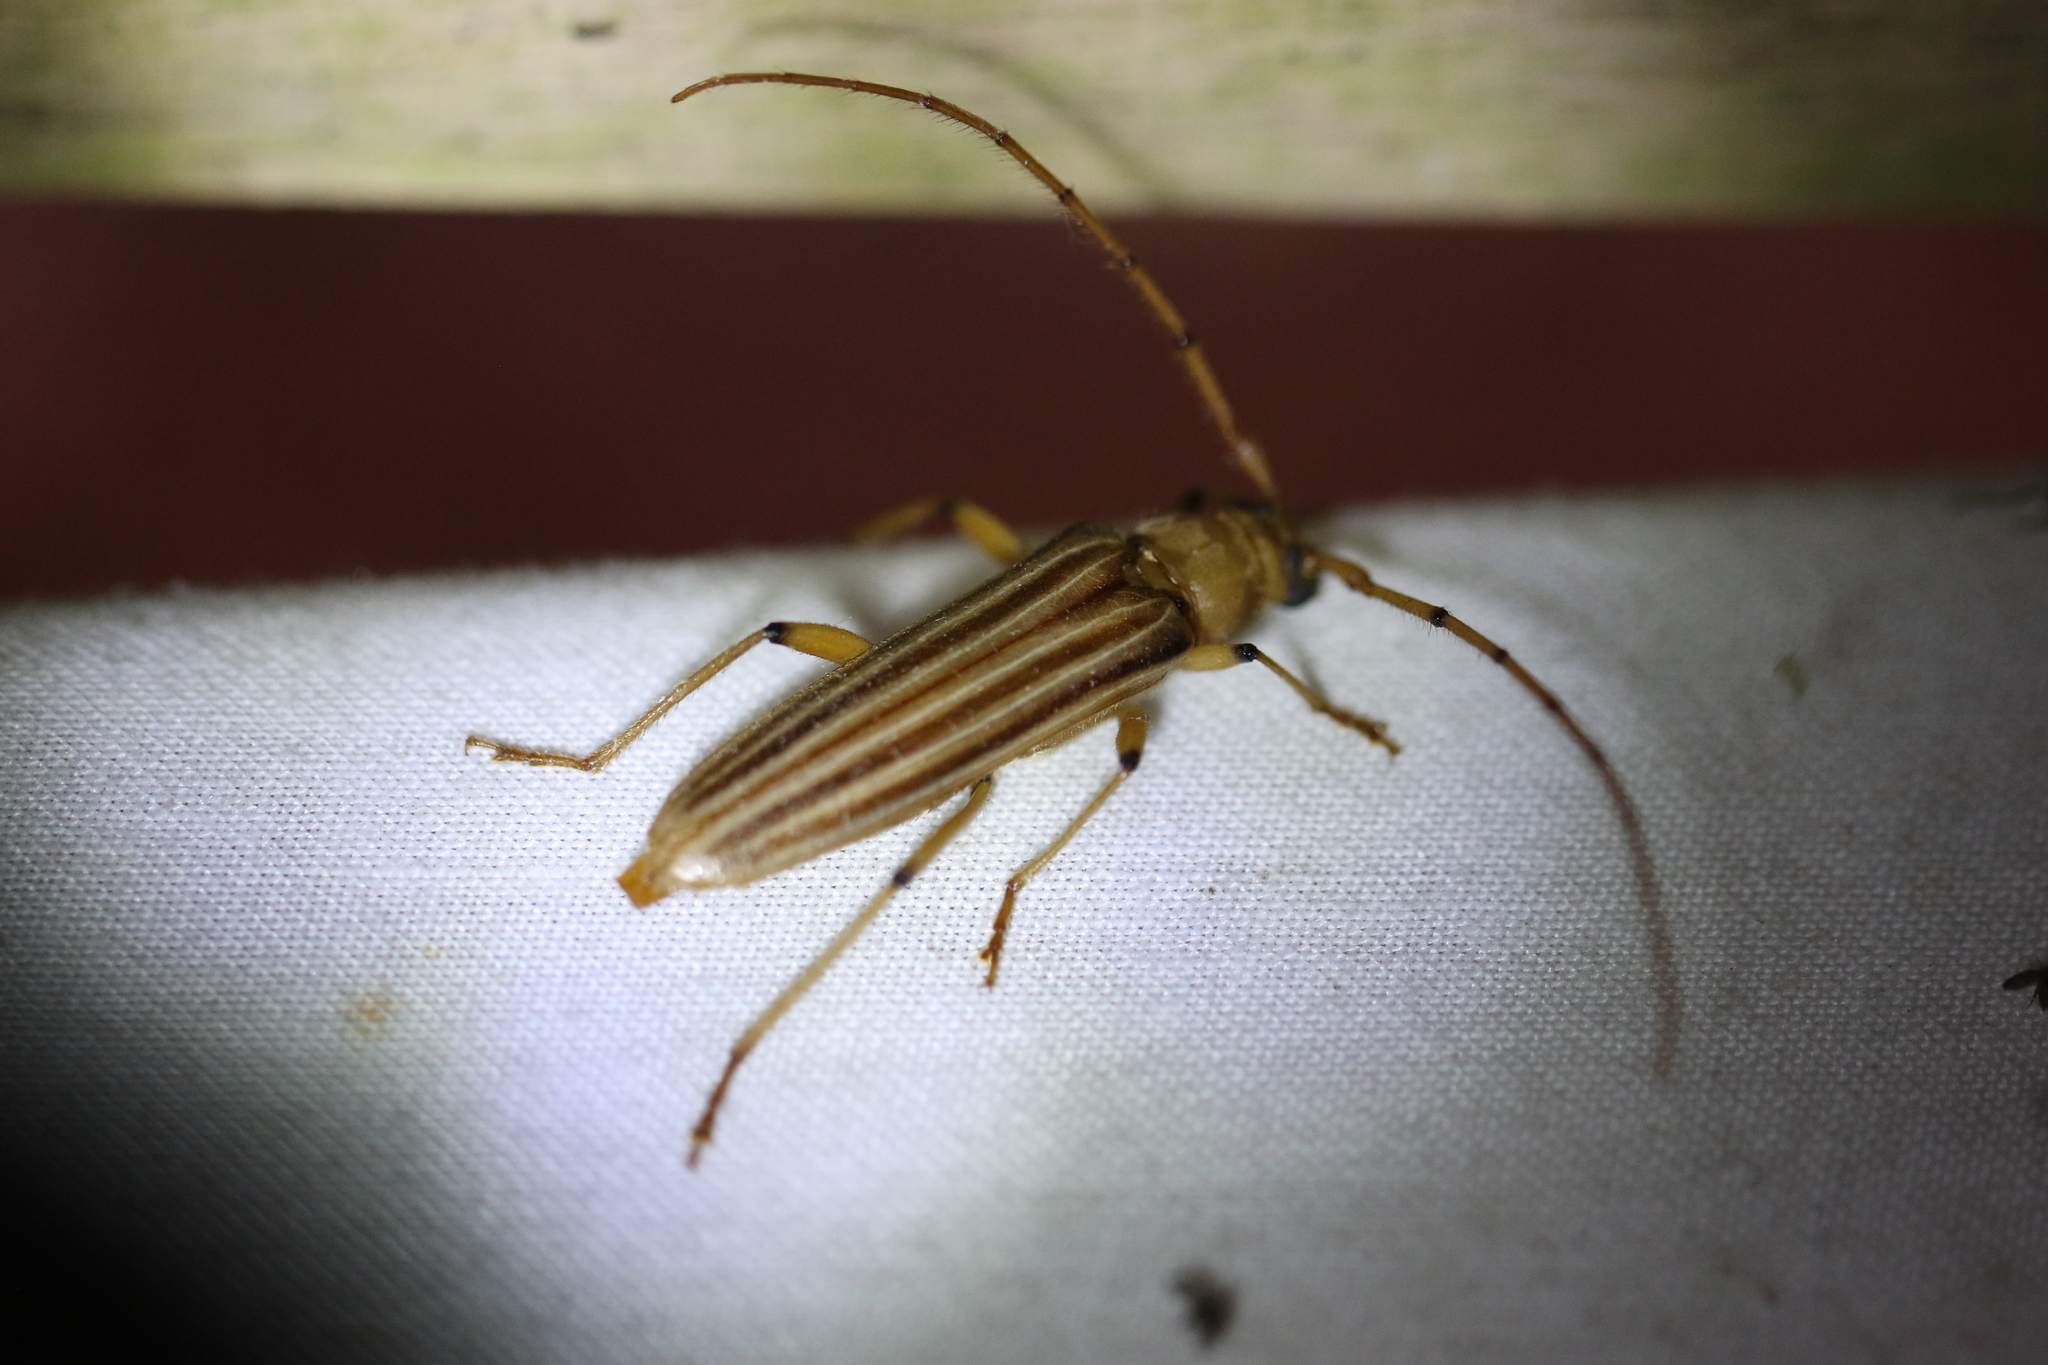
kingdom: Animalia
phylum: Arthropoda
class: Insecta
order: Coleoptera
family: Cerambycidae
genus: Malacopterus
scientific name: Malacopterus tenellus
